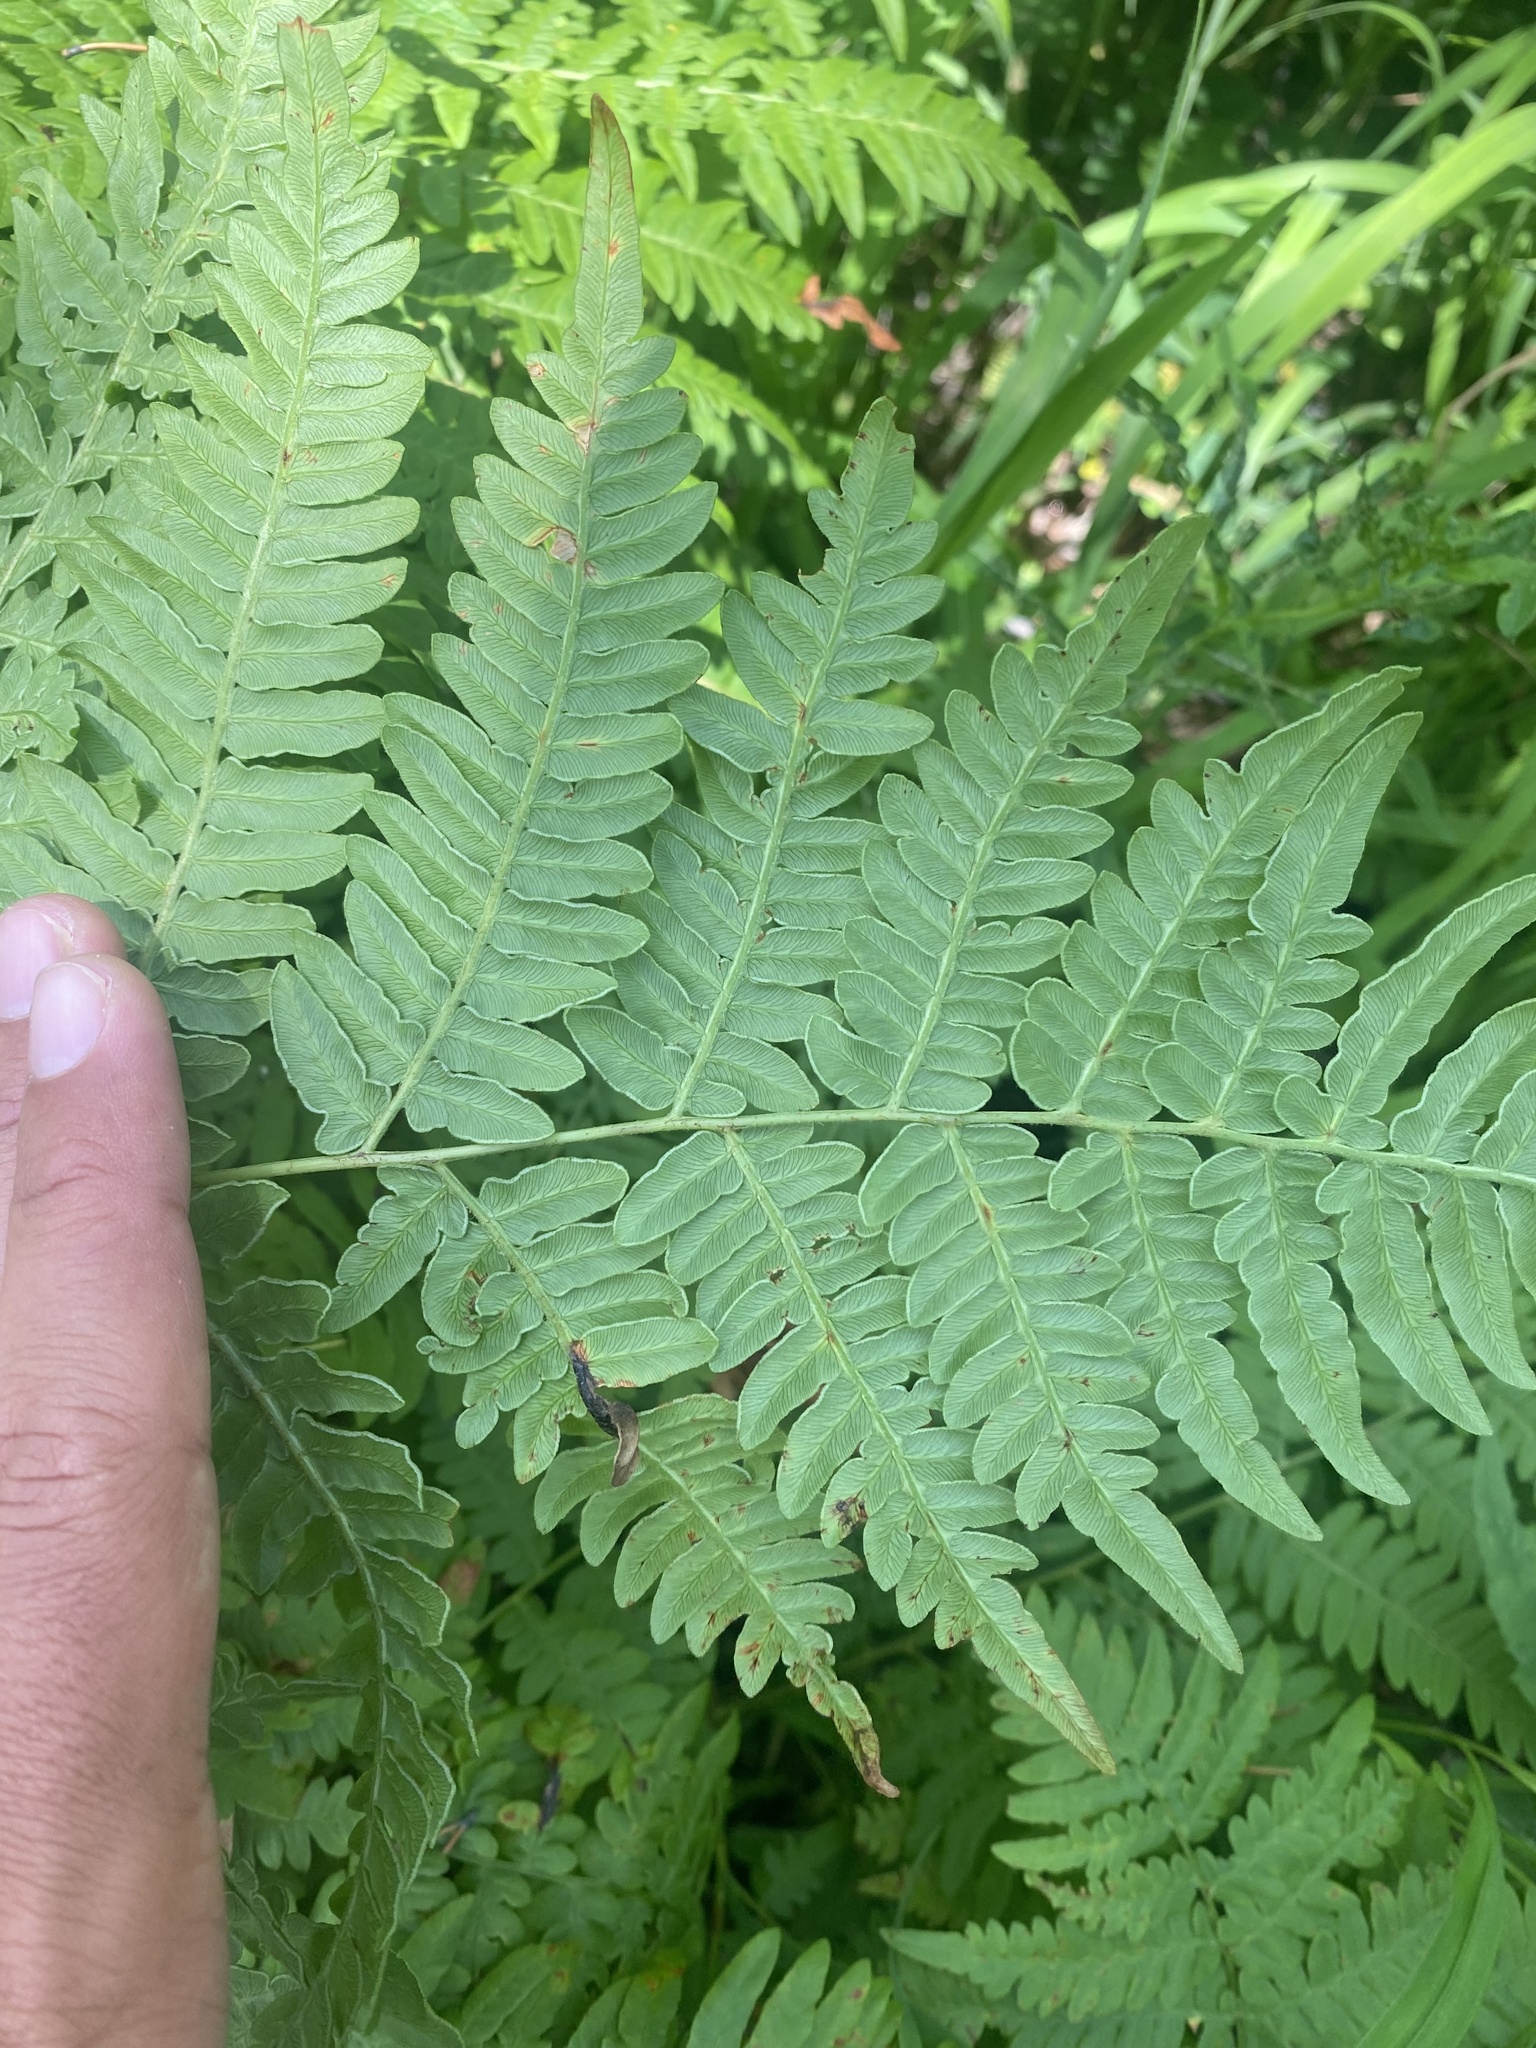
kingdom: Plantae
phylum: Tracheophyta
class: Polypodiopsida
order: Polypodiales
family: Dennstaedtiaceae
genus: Pteridium
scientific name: Pteridium aquilinum
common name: Bracken
